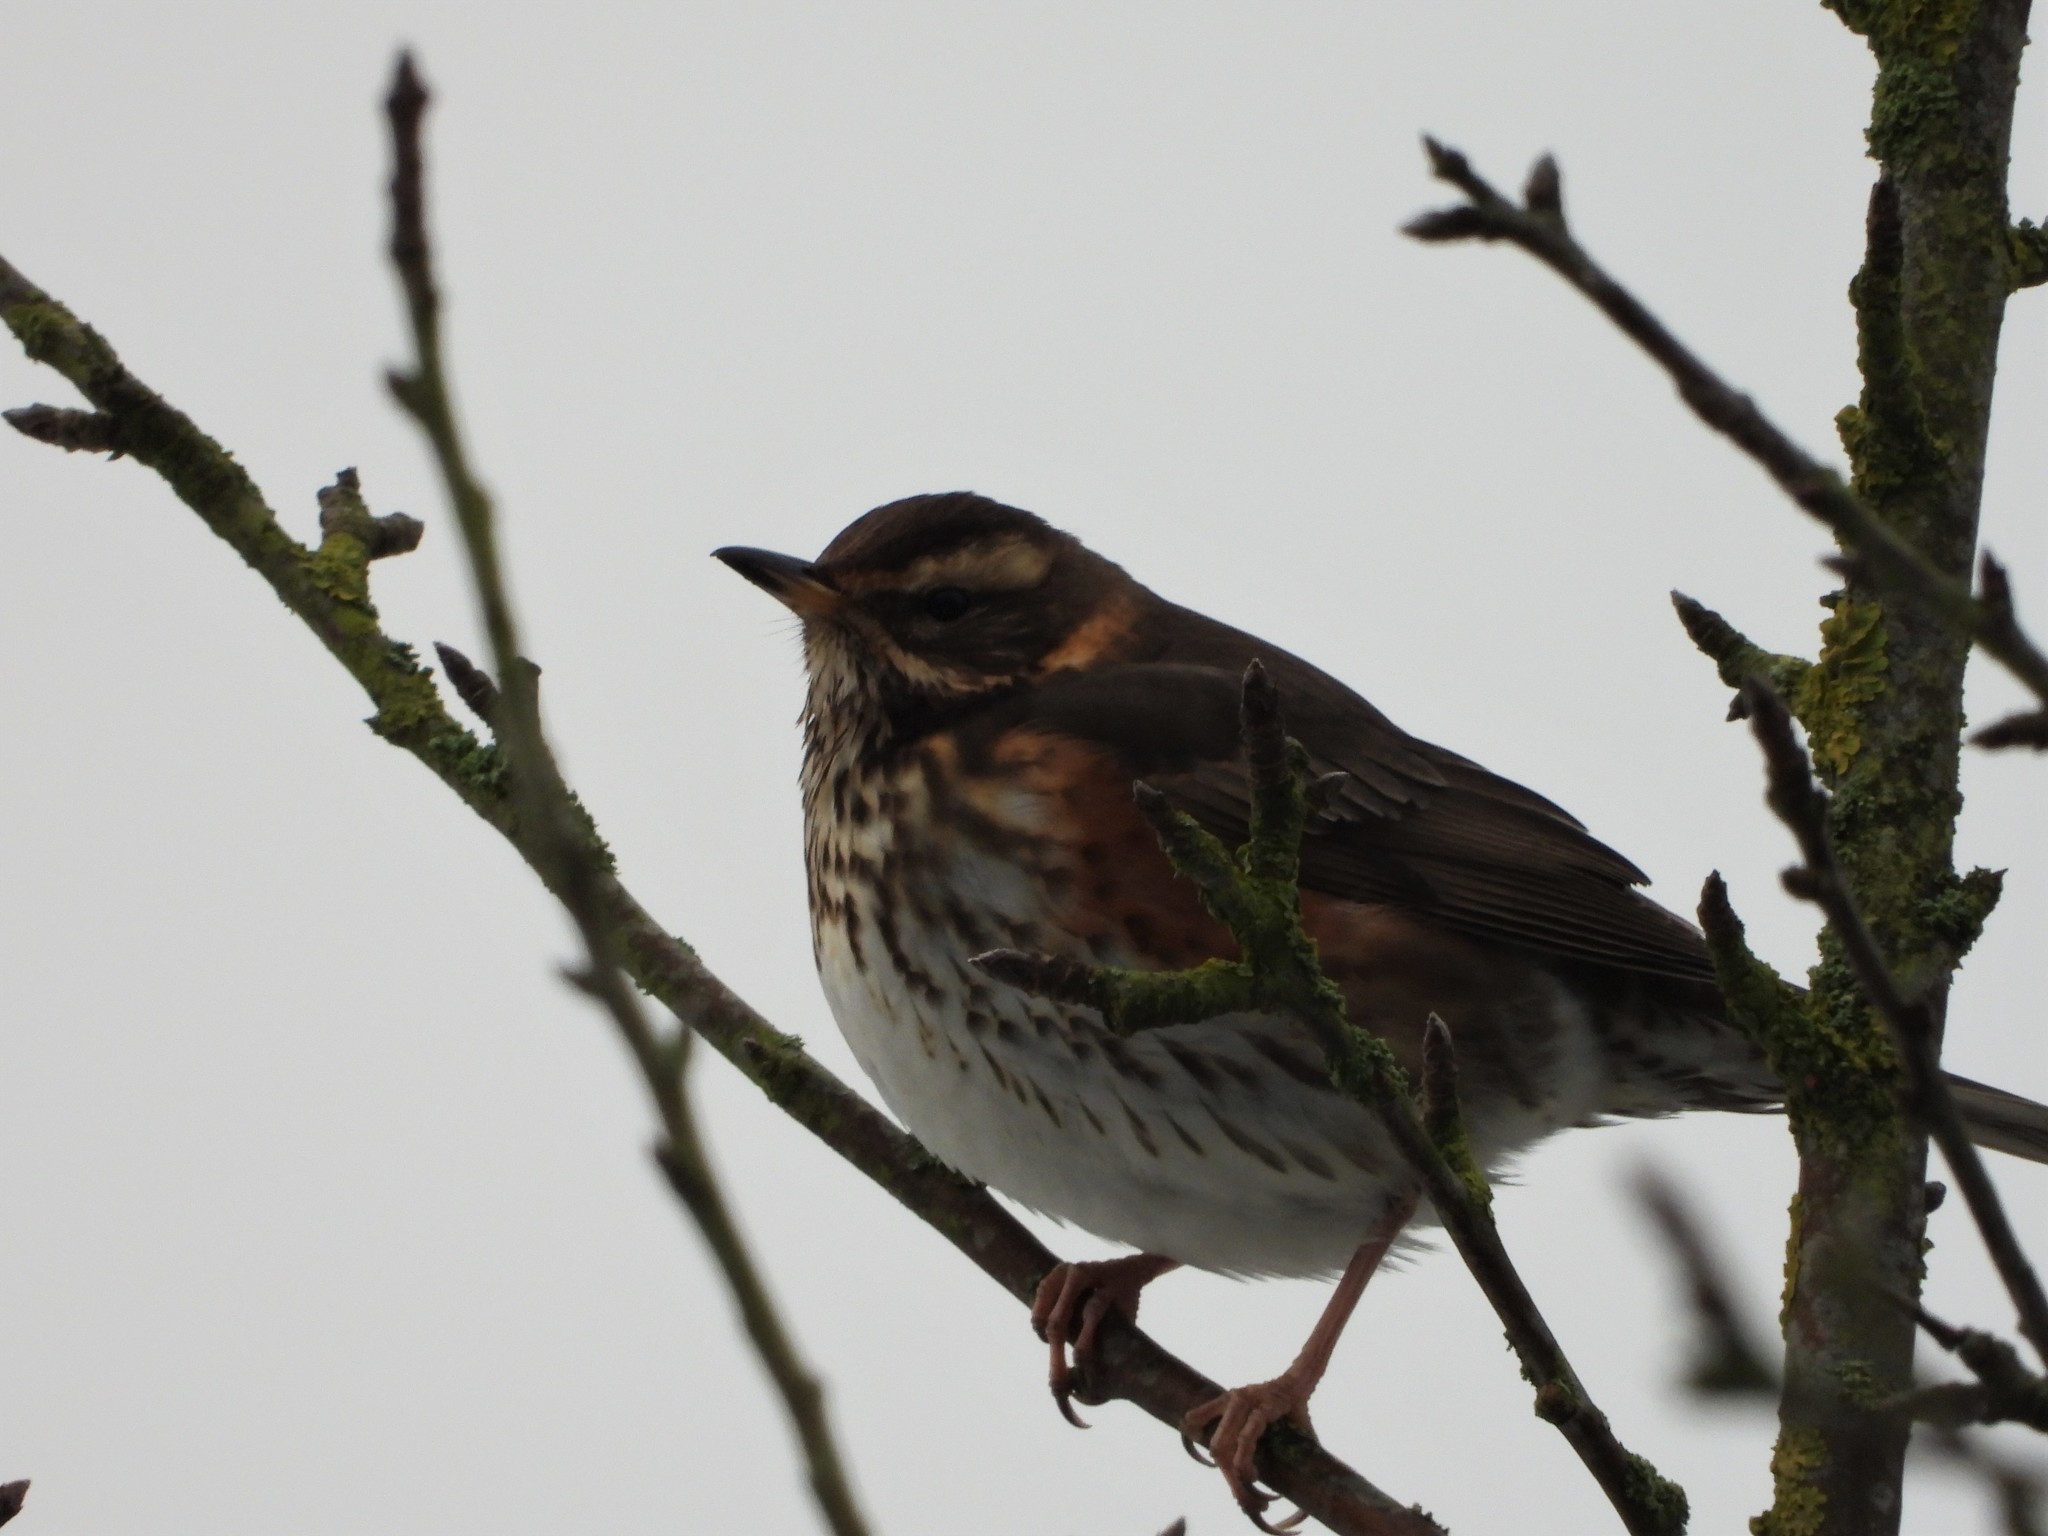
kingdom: Animalia
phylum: Chordata
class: Aves
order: Passeriformes
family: Turdidae
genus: Turdus
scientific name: Turdus iliacus
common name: Redwing
